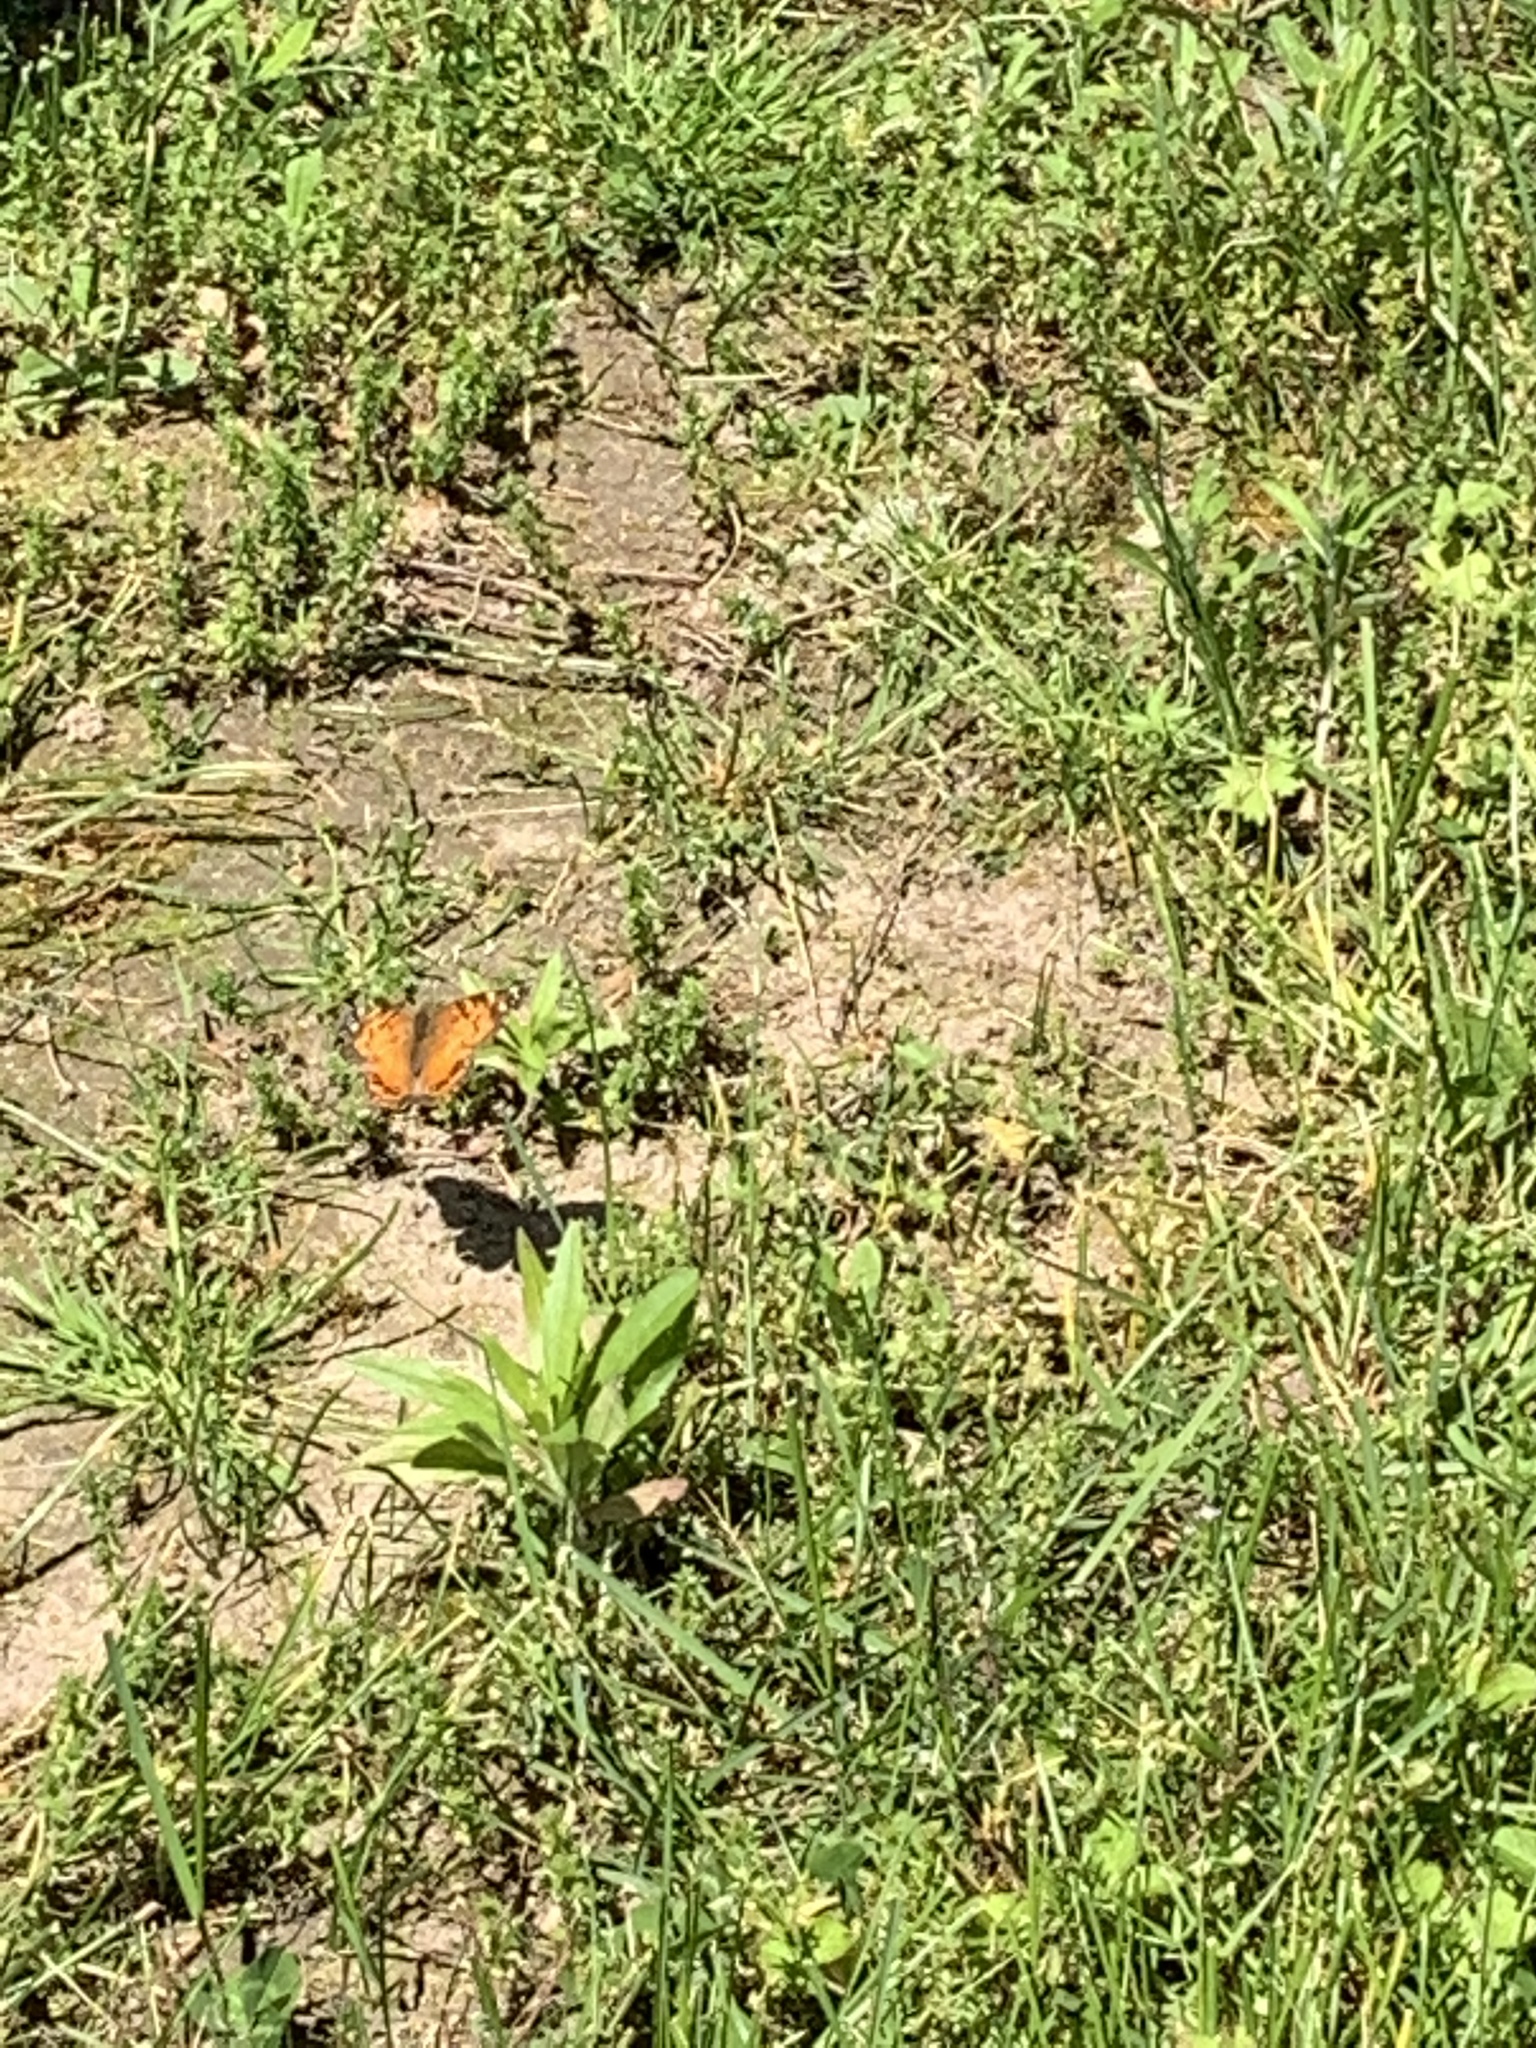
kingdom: Animalia
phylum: Arthropoda
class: Insecta
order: Lepidoptera
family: Nymphalidae
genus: Vanessa
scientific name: Vanessa virginiensis
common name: American lady
